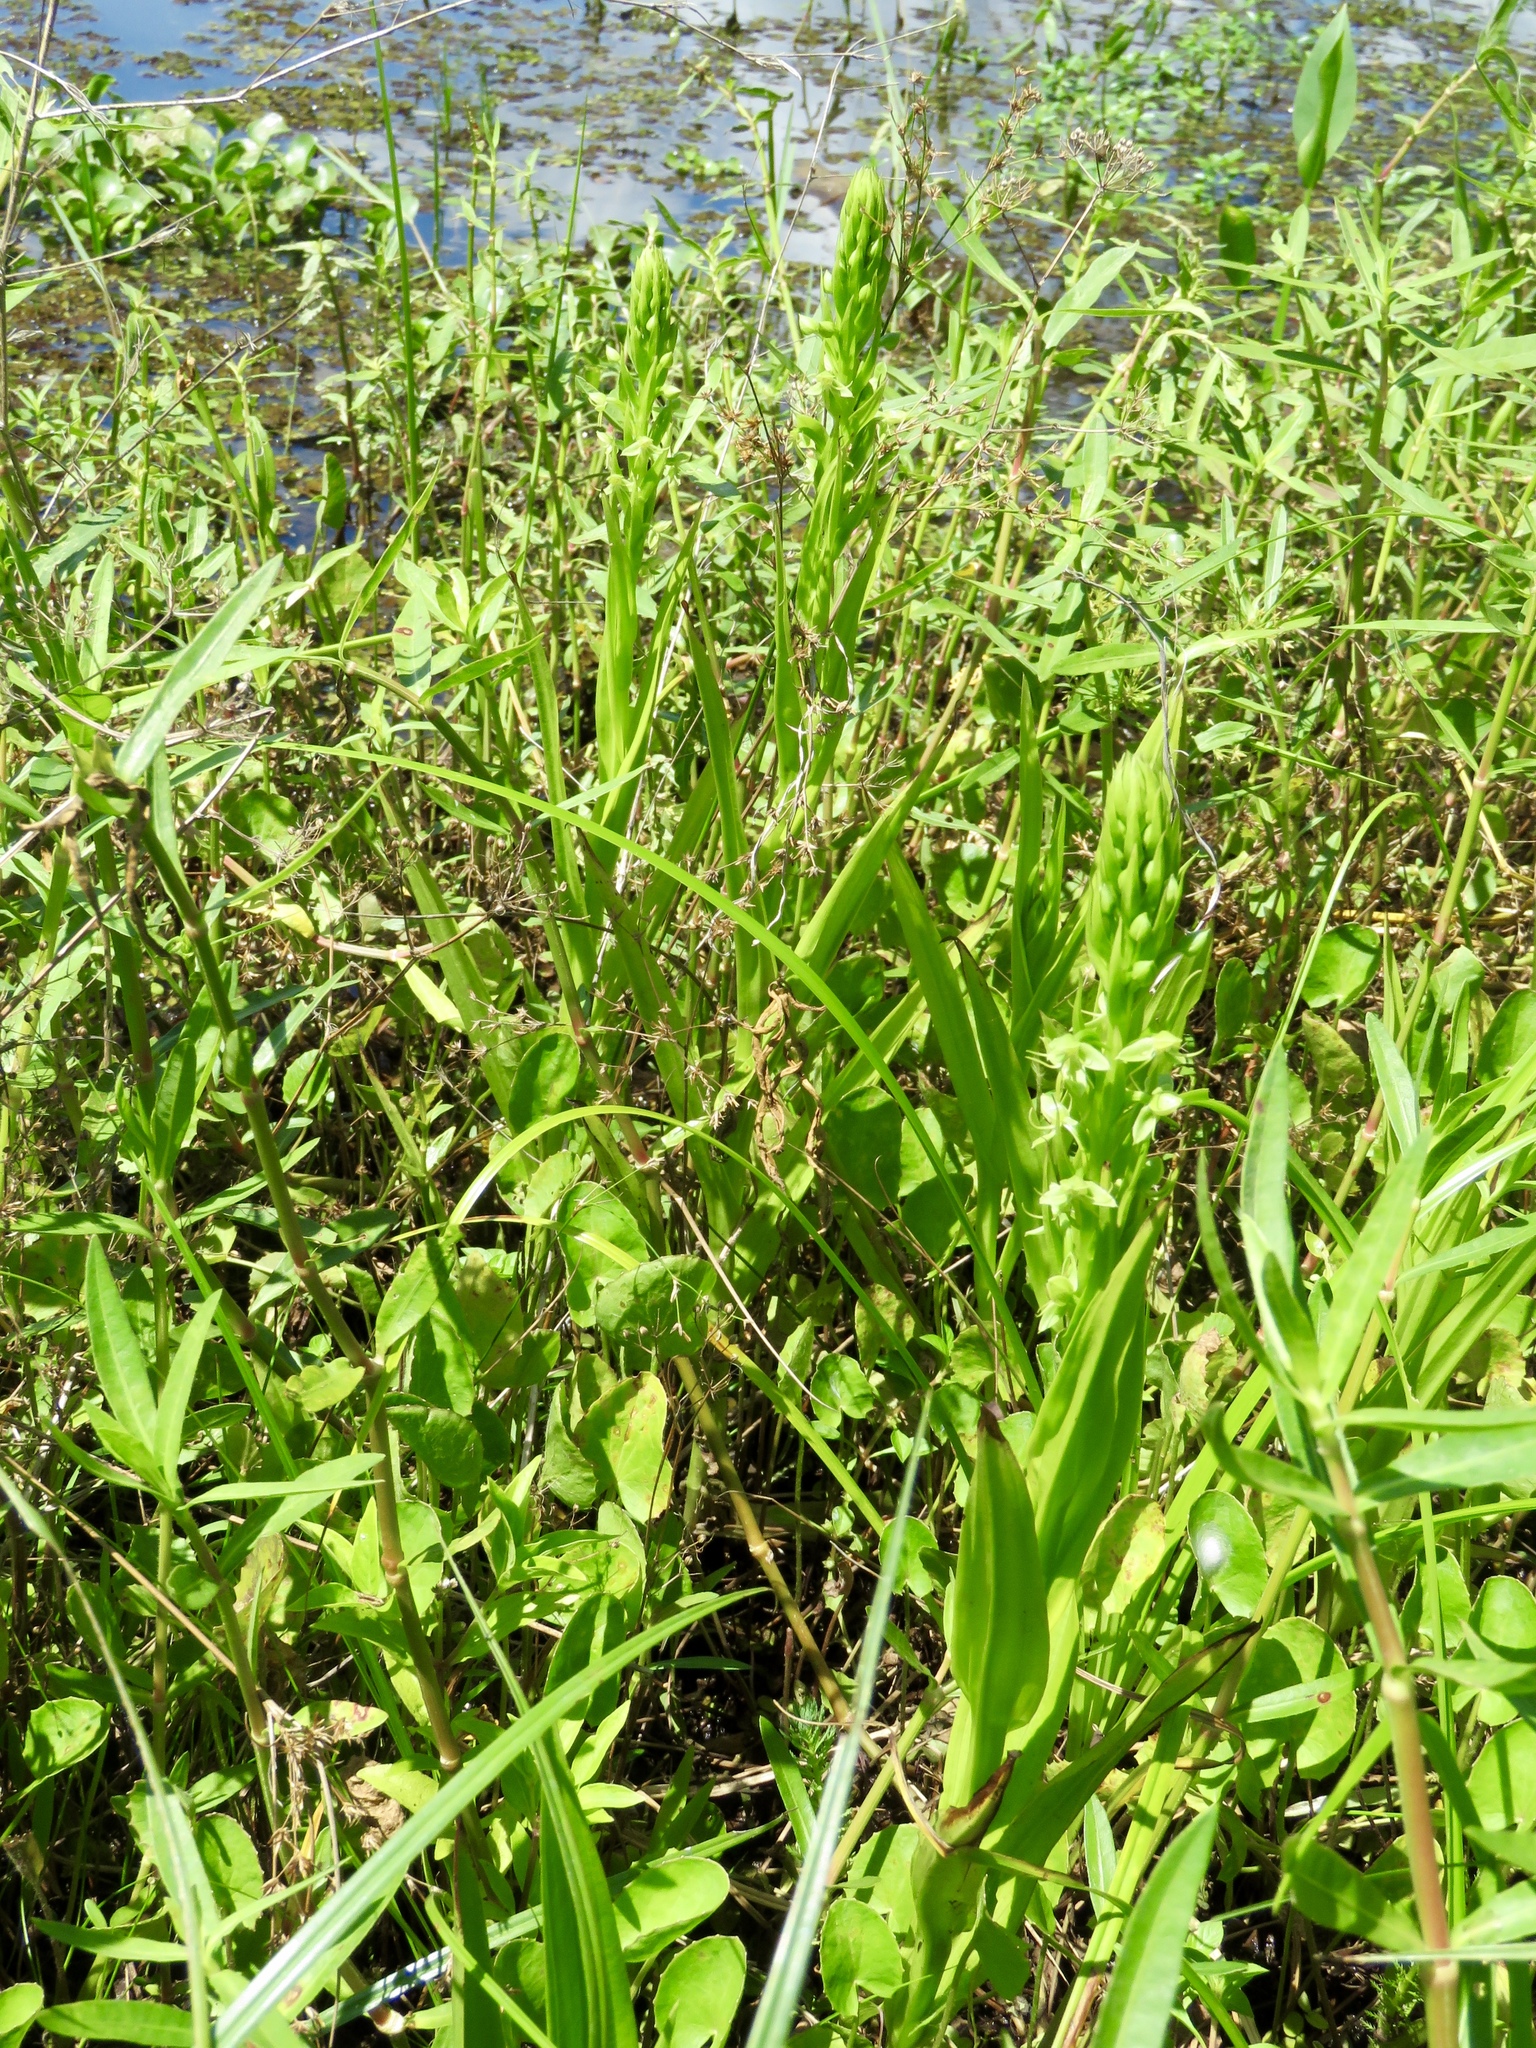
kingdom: Plantae
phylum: Tracheophyta
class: Liliopsida
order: Asparagales
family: Orchidaceae
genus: Habenaria
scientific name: Habenaria repens
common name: Water orchid
